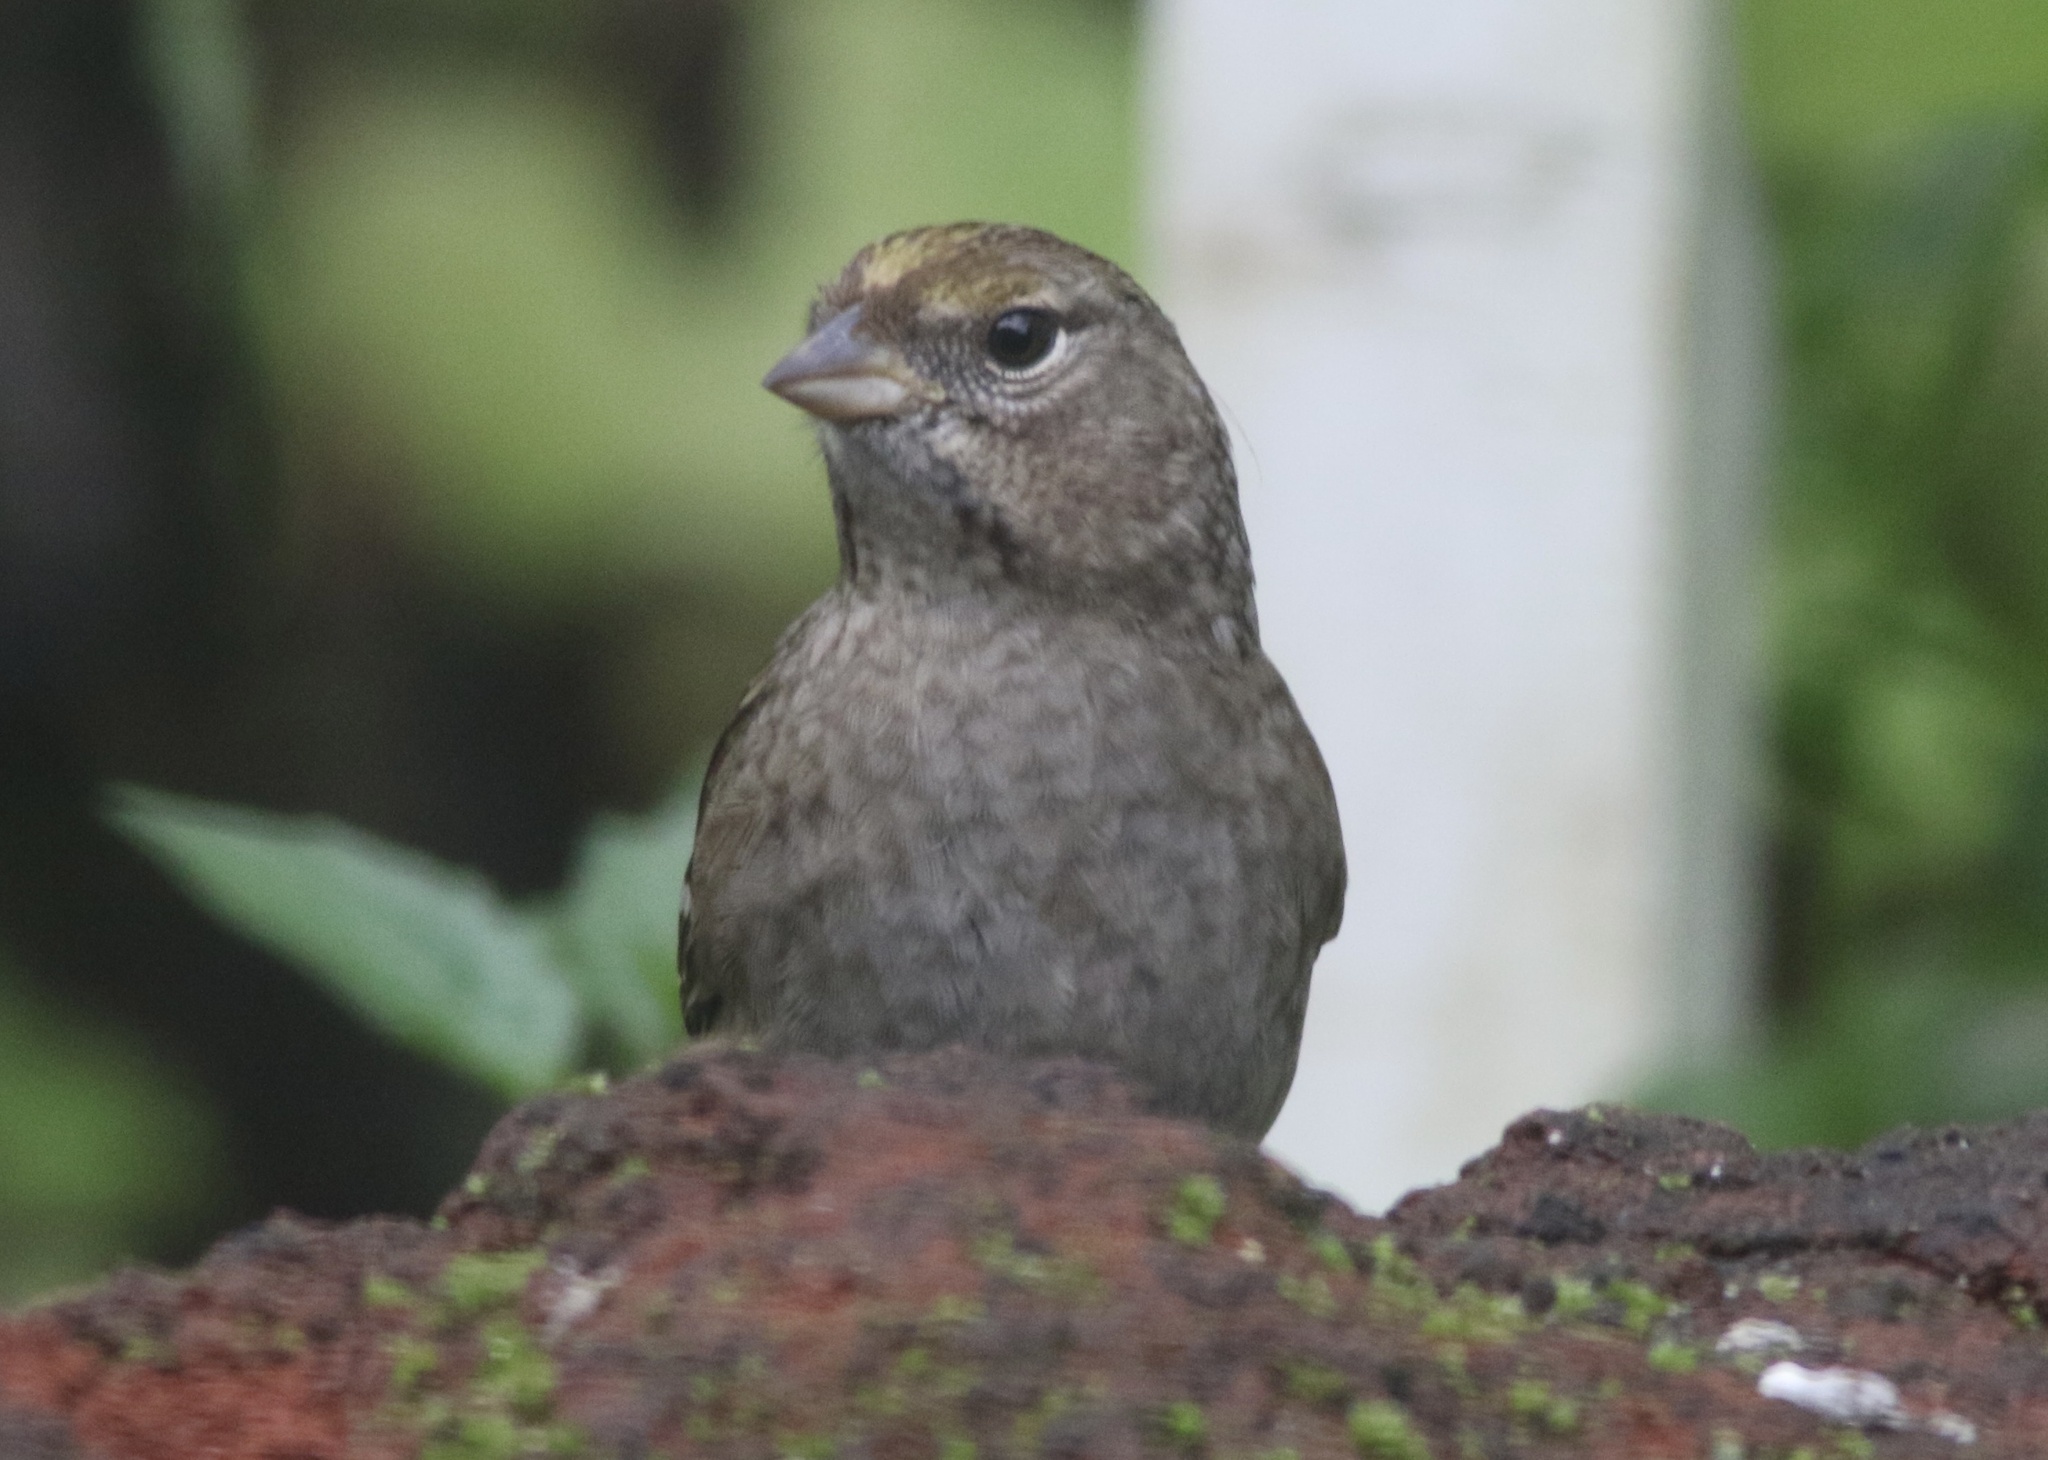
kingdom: Animalia
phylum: Chordata
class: Aves
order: Passeriformes
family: Passerellidae
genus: Zonotrichia
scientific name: Zonotrichia atricapilla
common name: Golden-crowned sparrow
